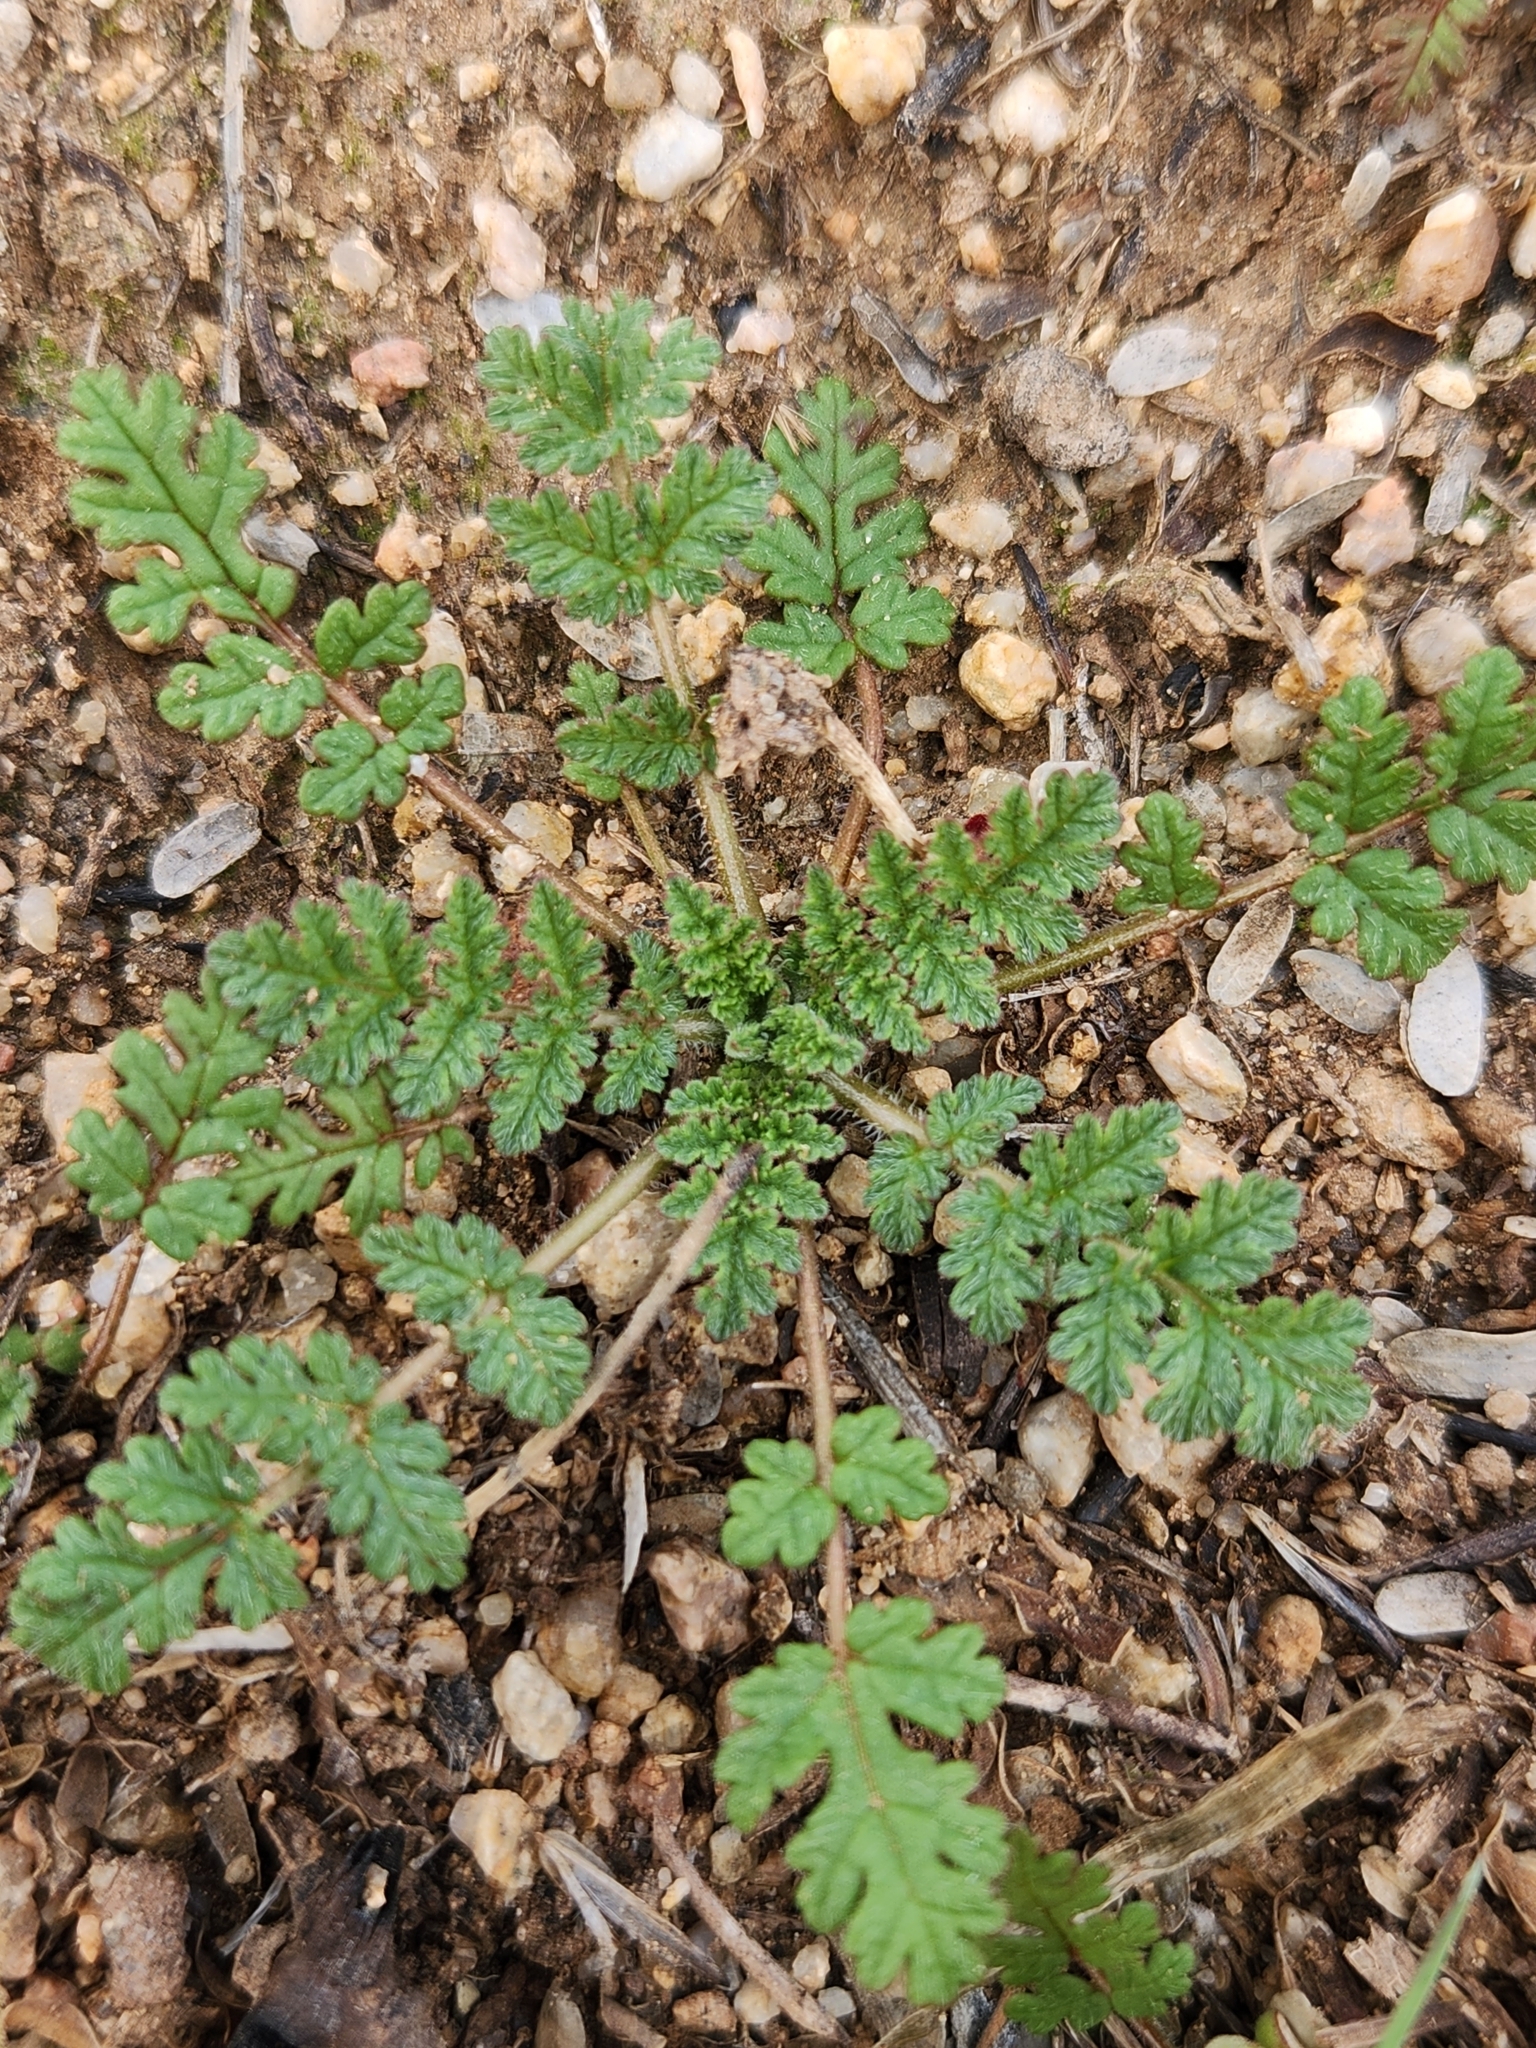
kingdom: Plantae
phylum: Tracheophyta
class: Magnoliopsida
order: Geraniales
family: Geraniaceae
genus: Erodium
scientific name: Erodium cicutarium
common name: Common stork's-bill
